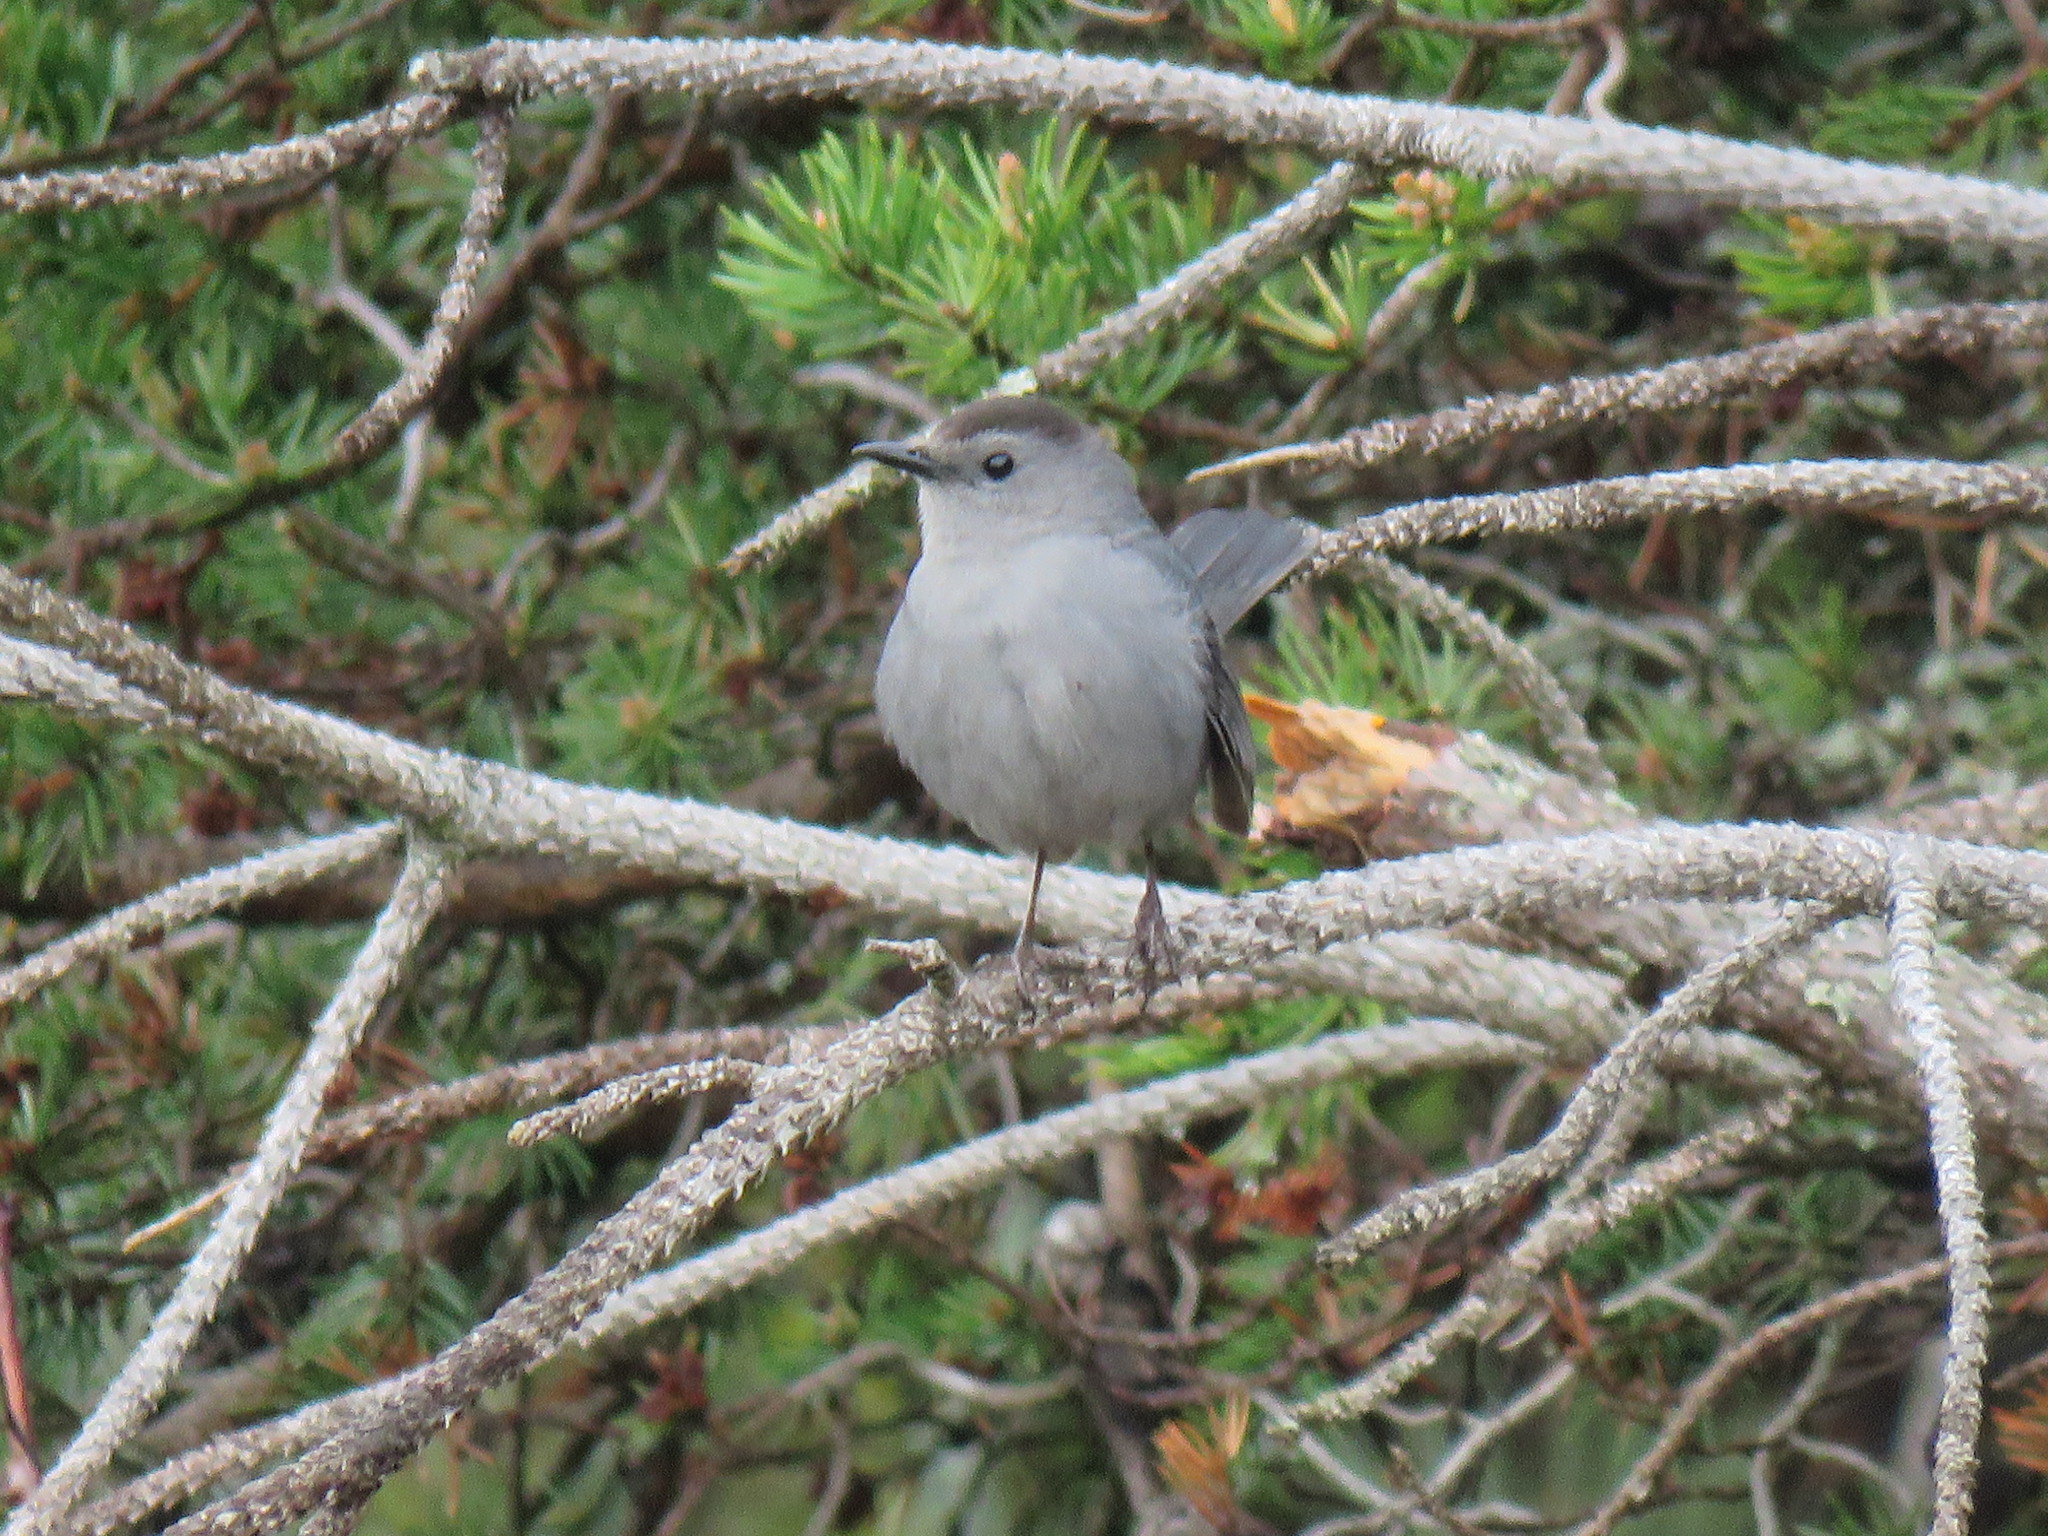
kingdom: Animalia
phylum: Chordata
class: Aves
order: Passeriformes
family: Mimidae
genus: Dumetella
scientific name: Dumetella carolinensis
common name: Gray catbird
